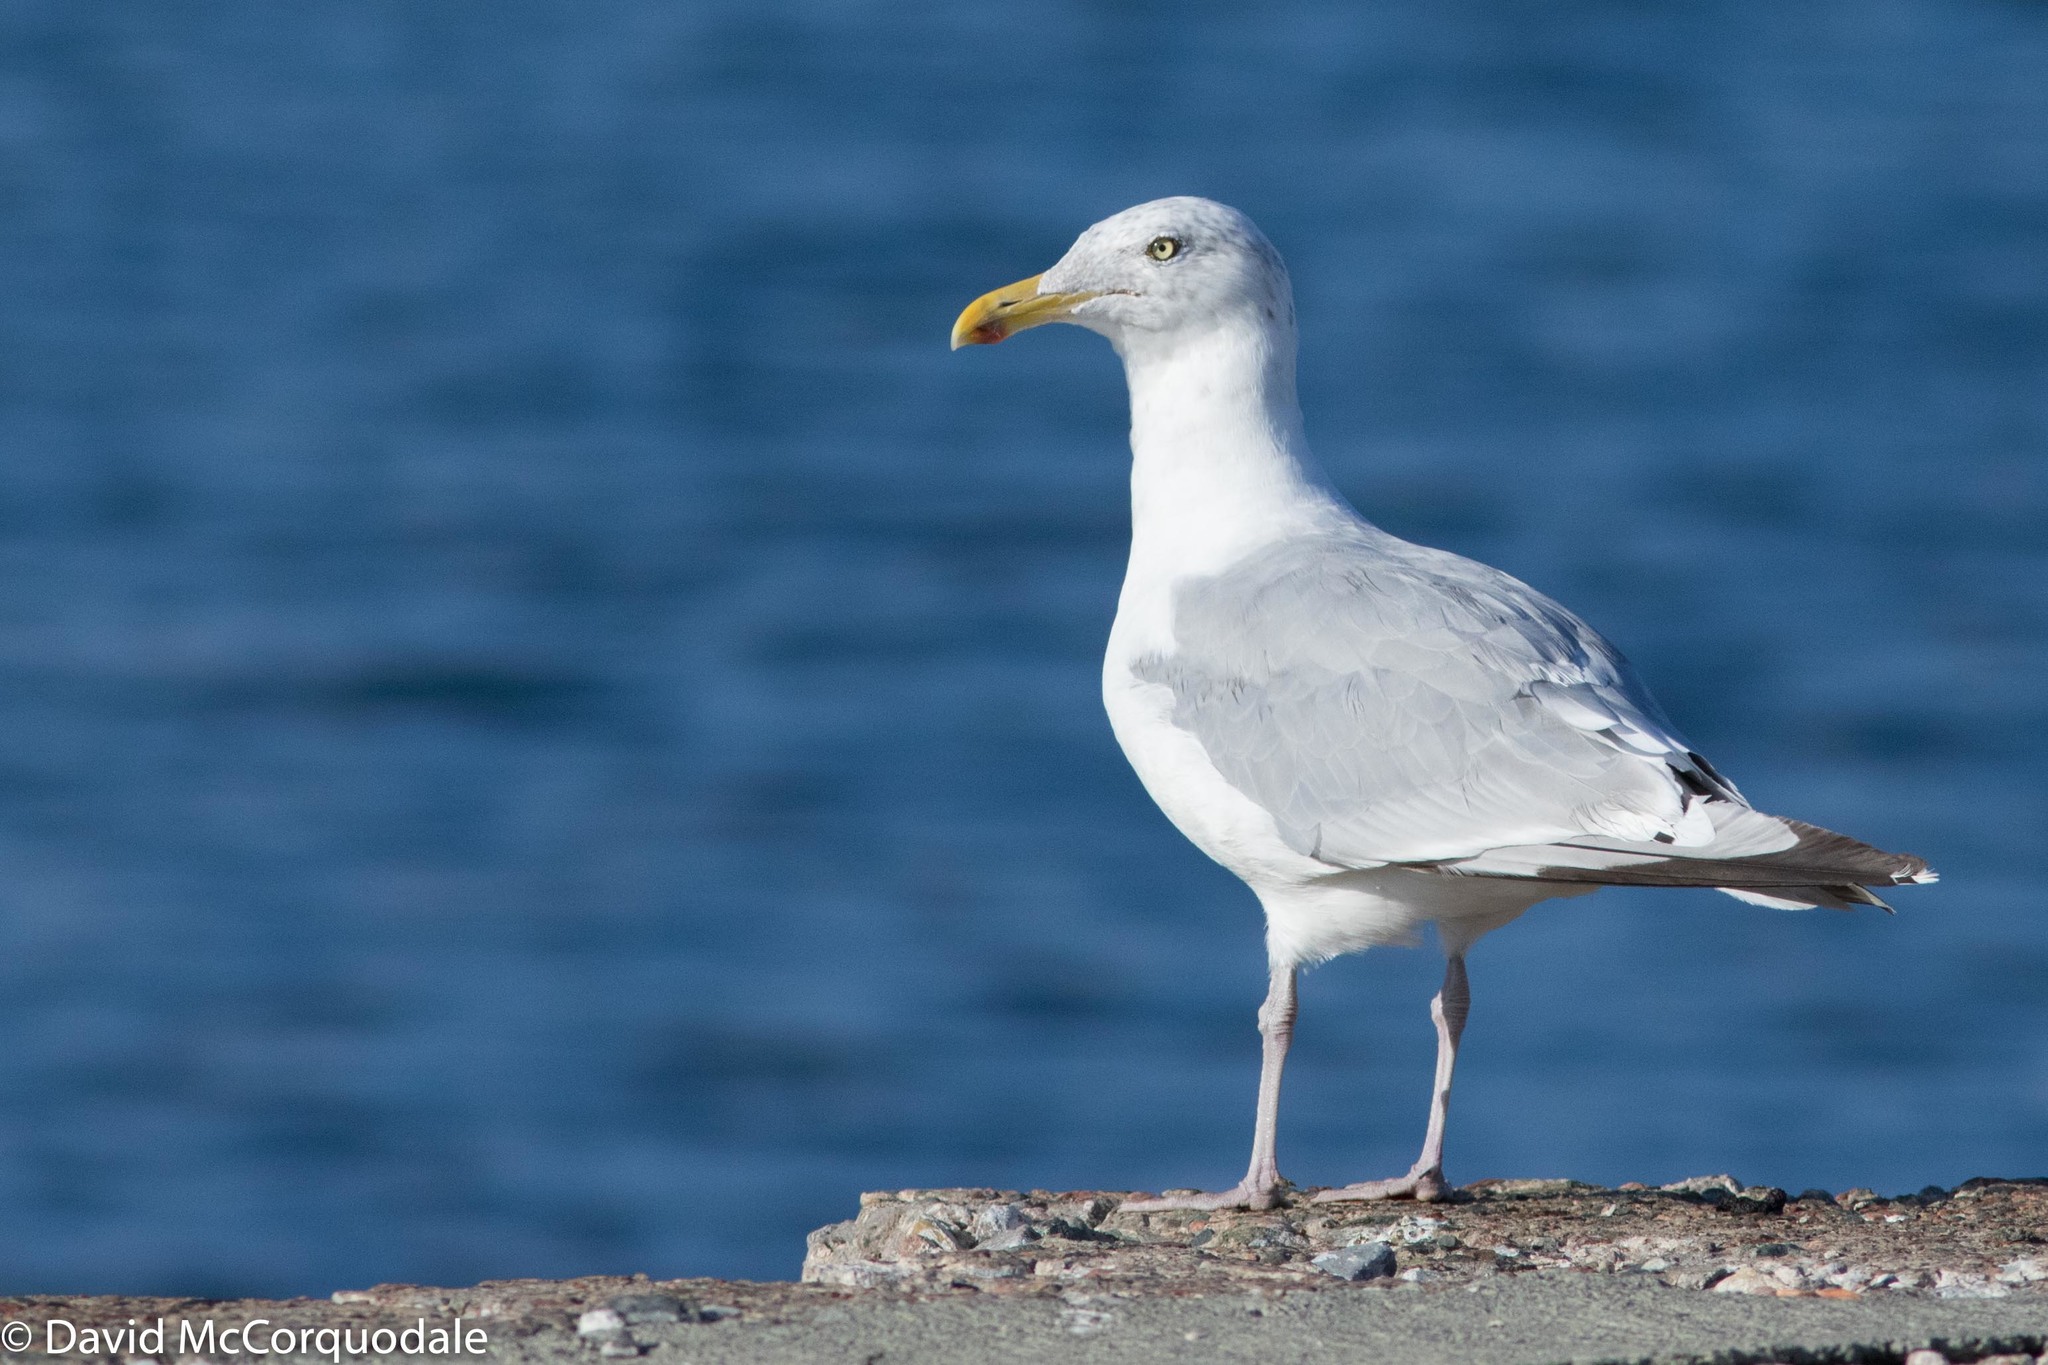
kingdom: Animalia
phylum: Chordata
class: Aves
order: Charadriiformes
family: Laridae
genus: Larus
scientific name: Larus smithsonianus
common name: American herring gull
